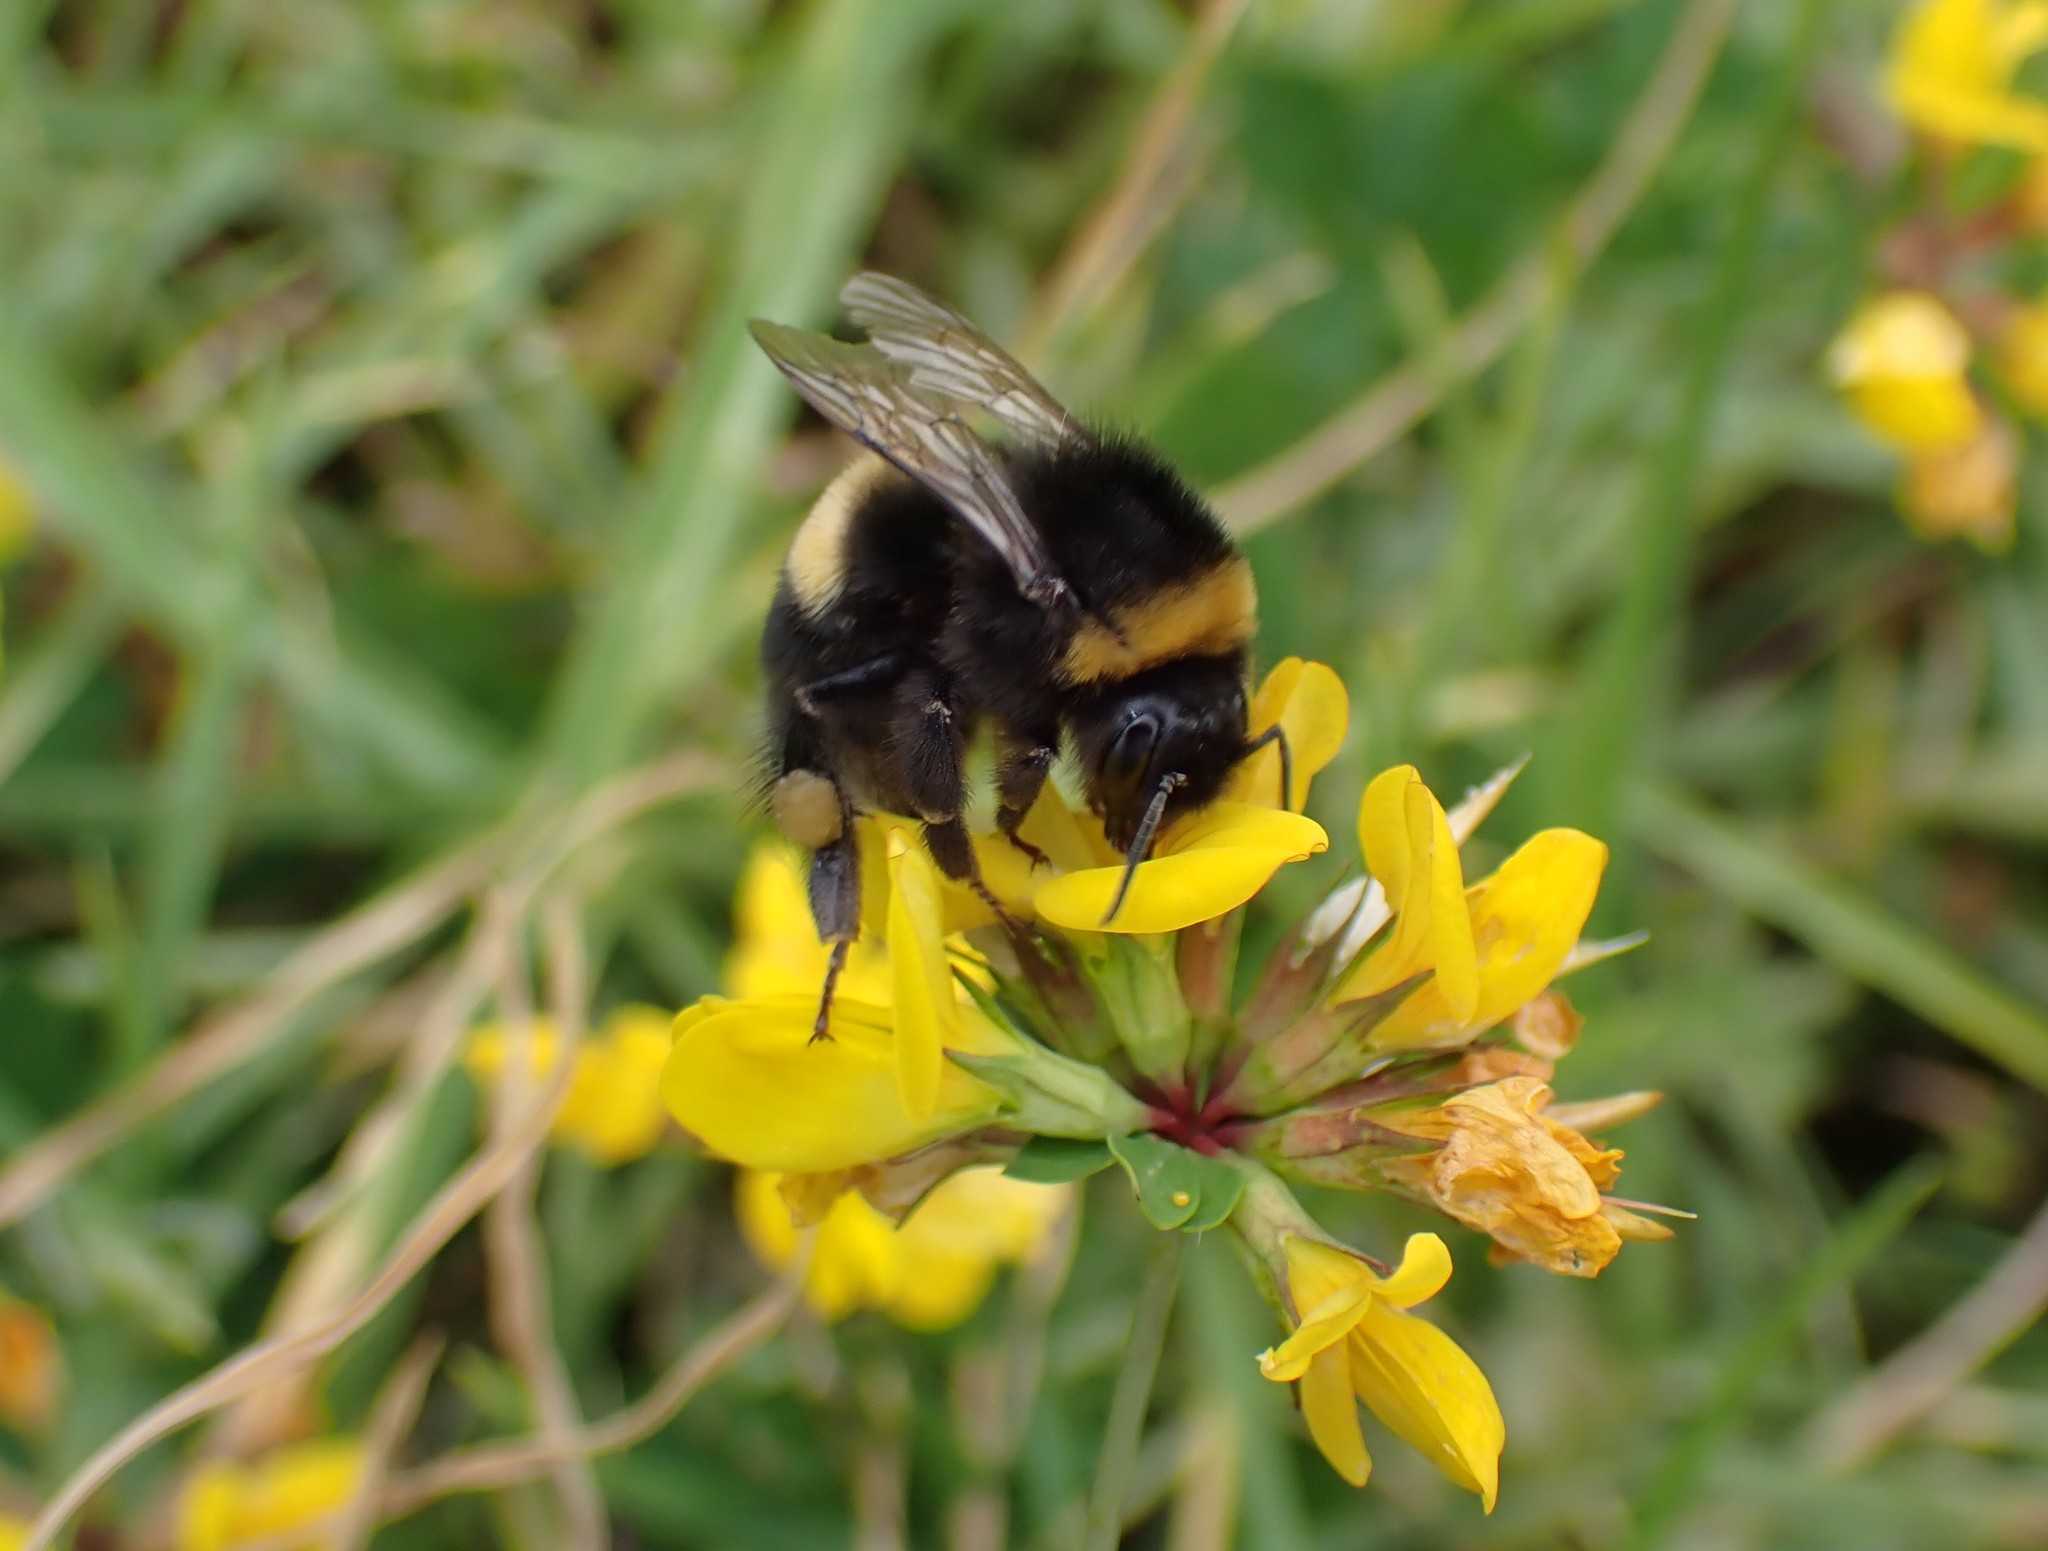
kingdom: Animalia
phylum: Arthropoda
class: Insecta
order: Hymenoptera
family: Apidae
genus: Bombus
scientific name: Bombus terrestris
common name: Buff-tailed bumblebee
